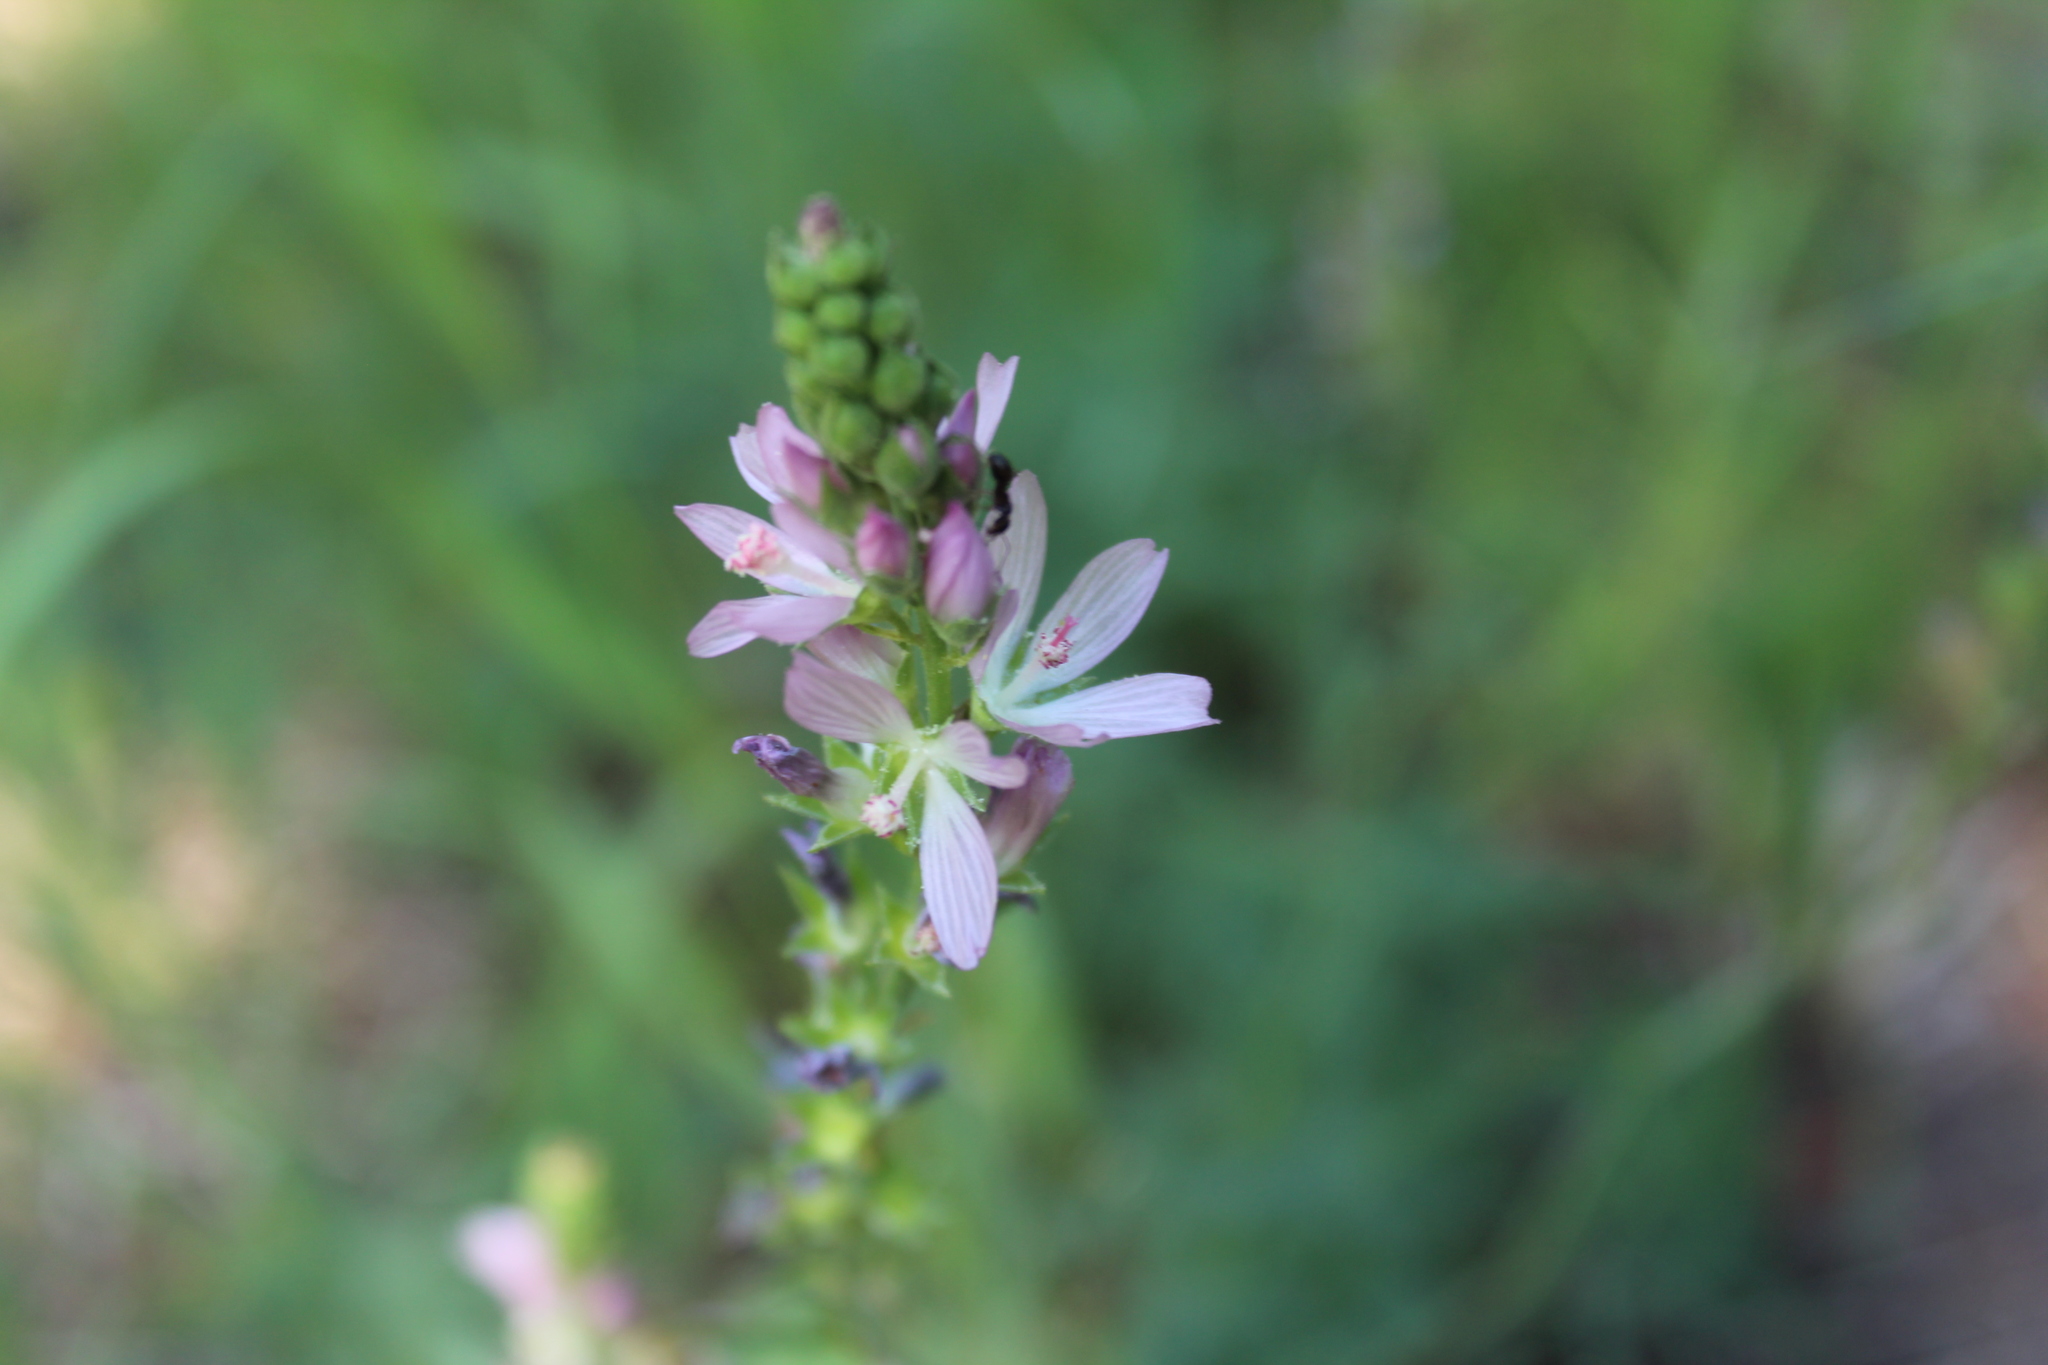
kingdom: Plantae
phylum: Tracheophyta
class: Magnoliopsida
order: Malvales
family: Malvaceae
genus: Sidalcea
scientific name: Sidalcea oregana
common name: Oregon checker-mallow
